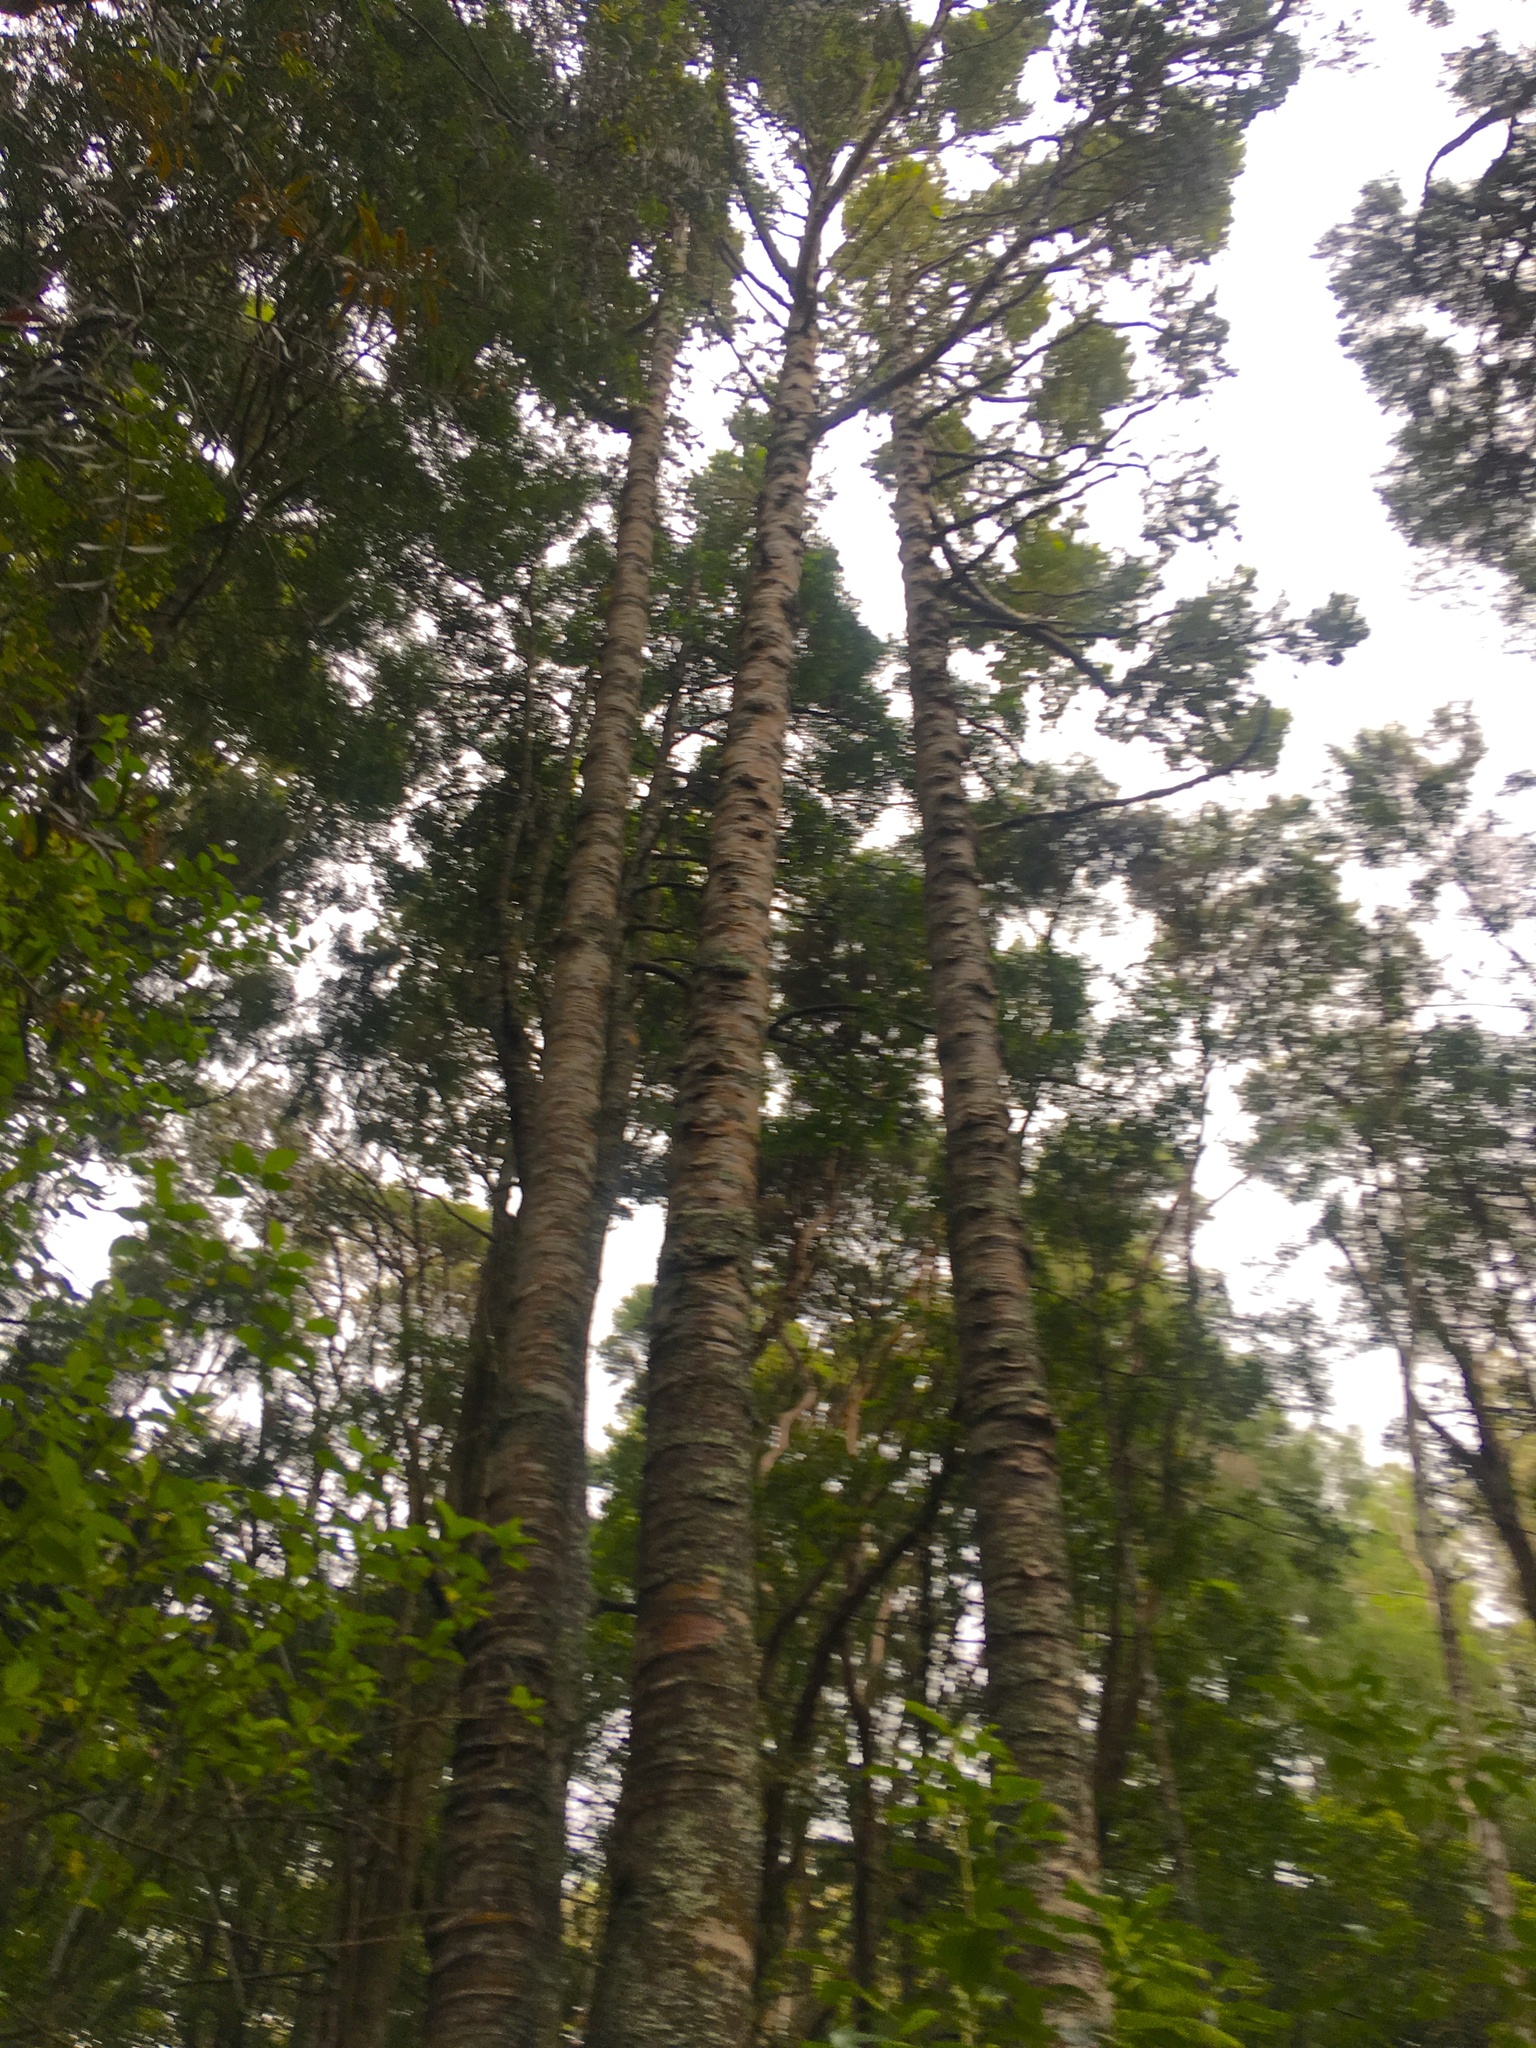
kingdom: Plantae
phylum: Tracheophyta
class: Pinopsida
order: Pinales
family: Araucariaceae
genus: Agathis
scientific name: Agathis australis
